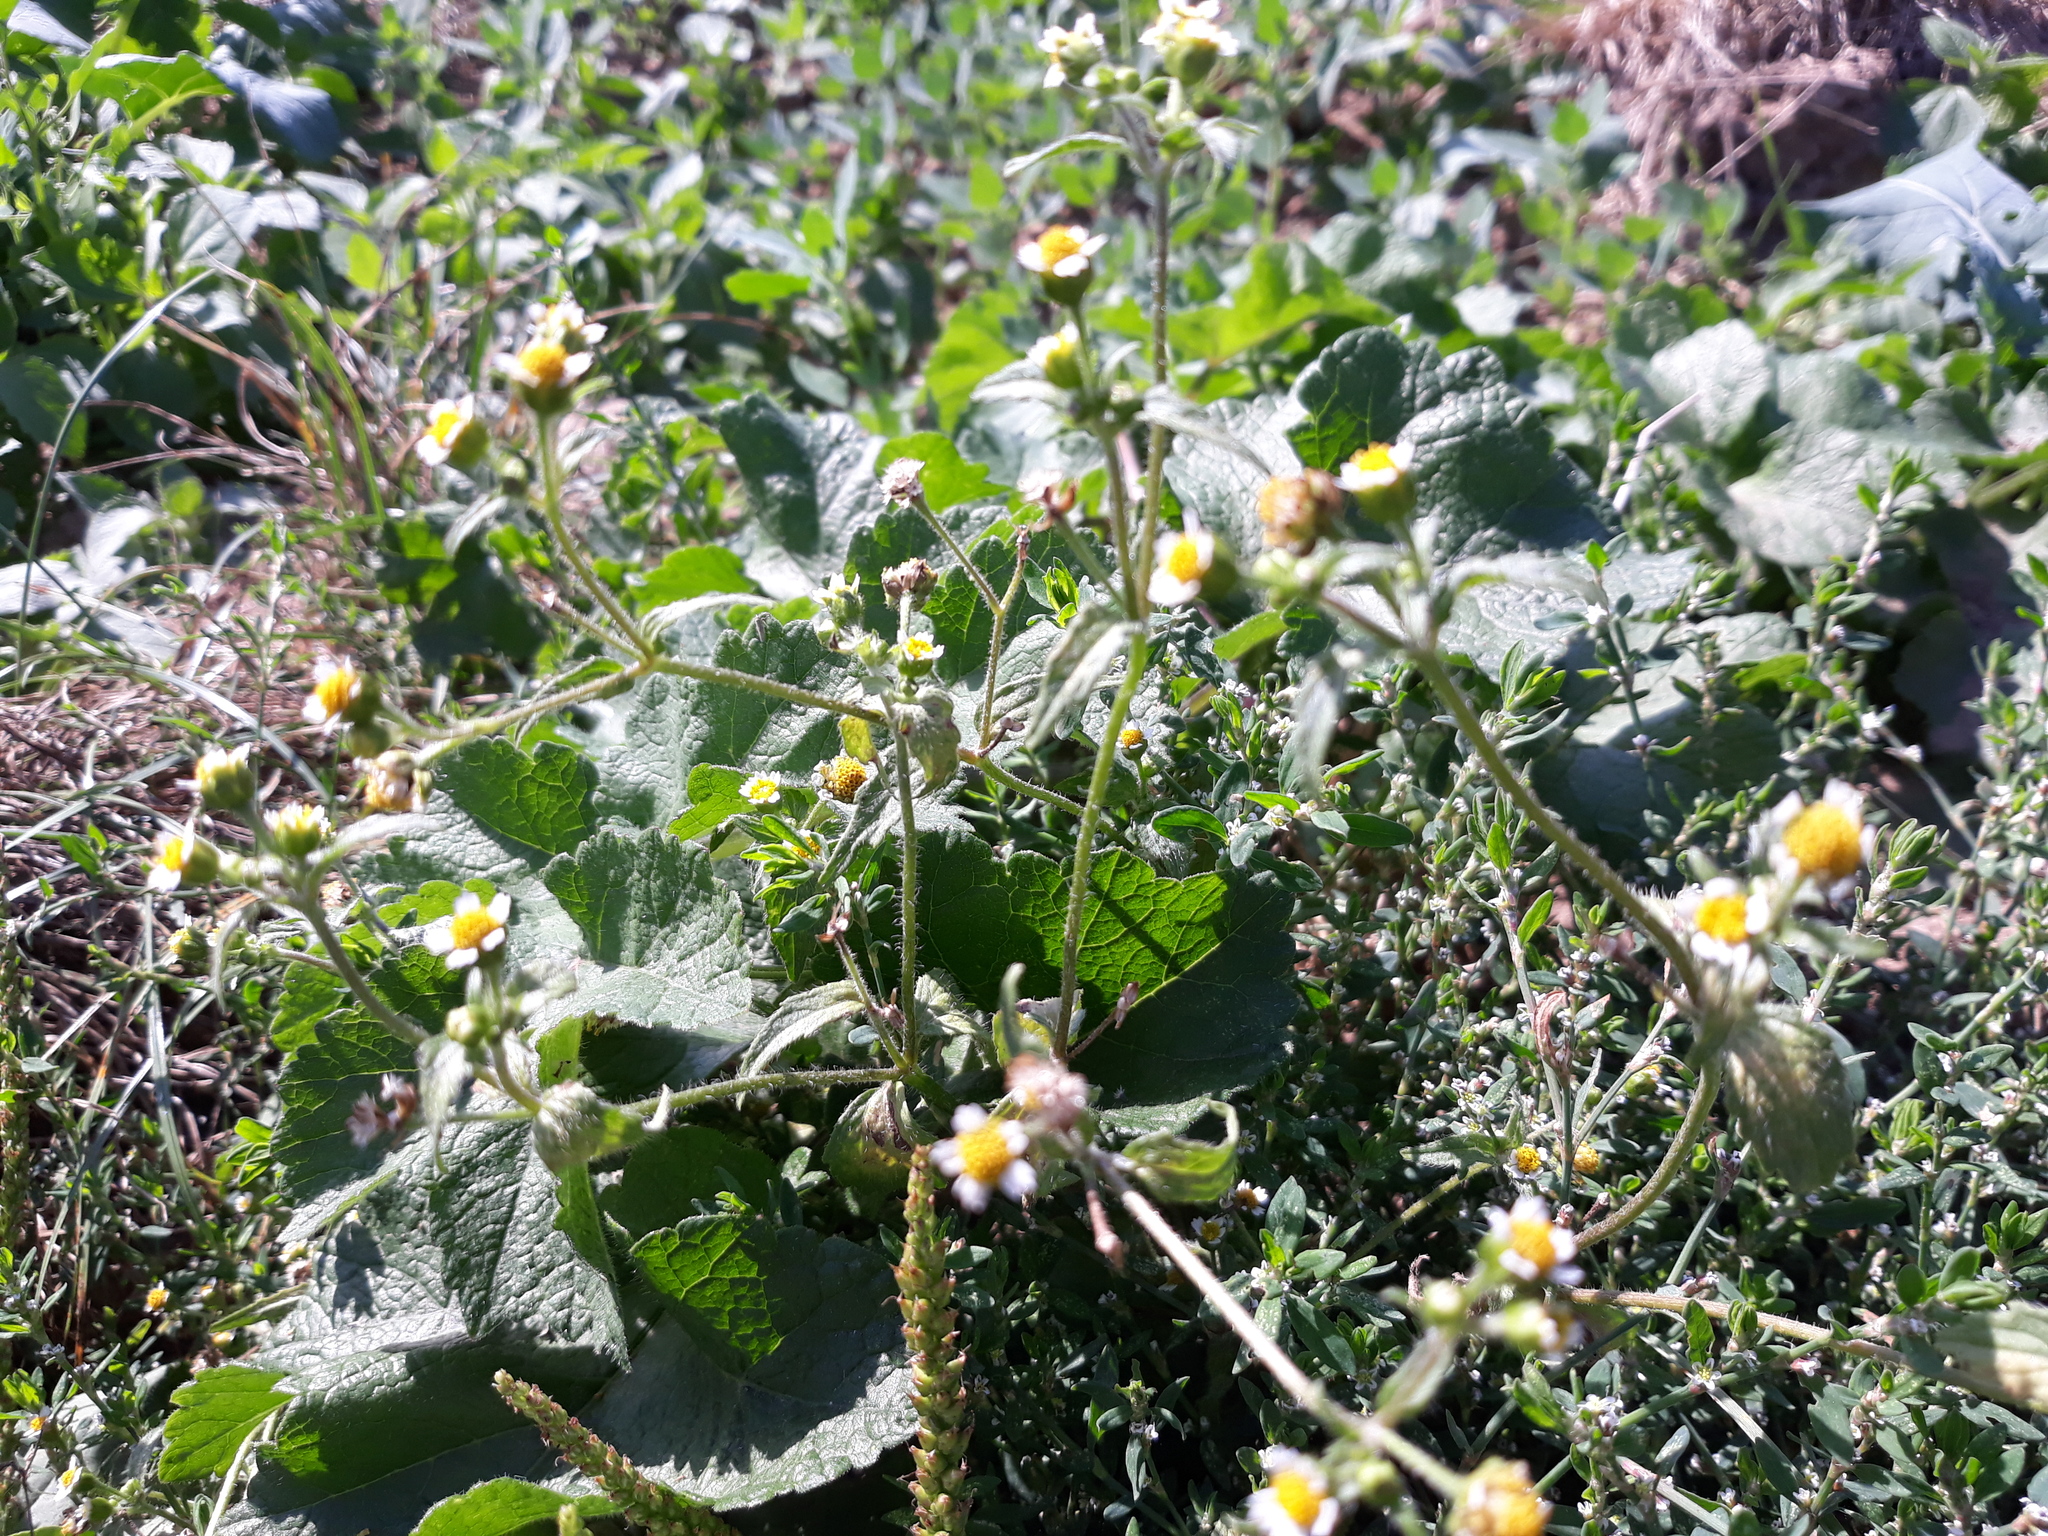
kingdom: Plantae
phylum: Tracheophyta
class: Magnoliopsida
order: Asterales
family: Asteraceae
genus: Galinsoga
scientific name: Galinsoga quadriradiata
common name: Shaggy soldier
